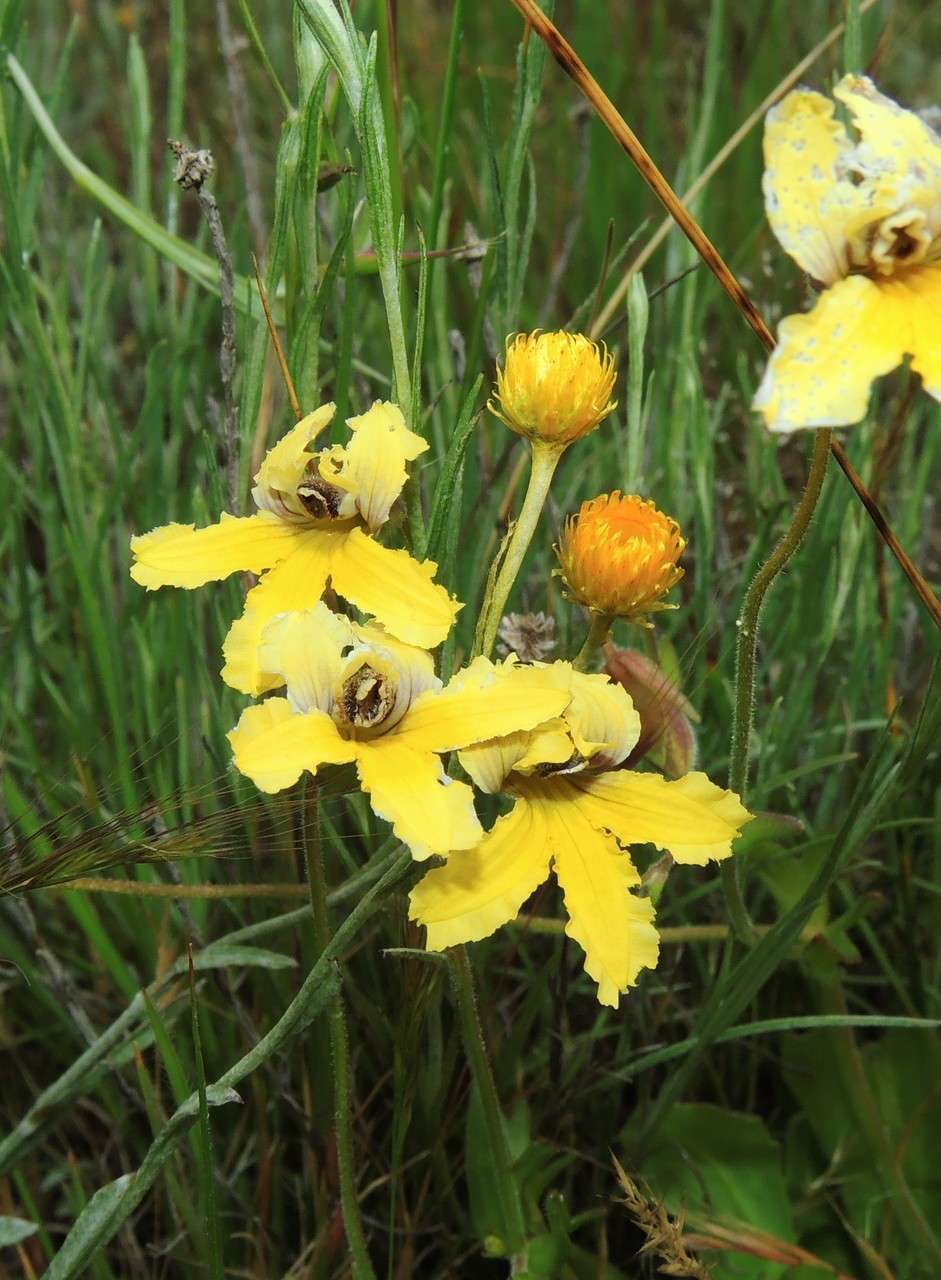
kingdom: Plantae
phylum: Tracheophyta
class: Magnoliopsida
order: Asterales
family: Goodeniaceae
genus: Goodenia
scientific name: Goodenia paradoxa
